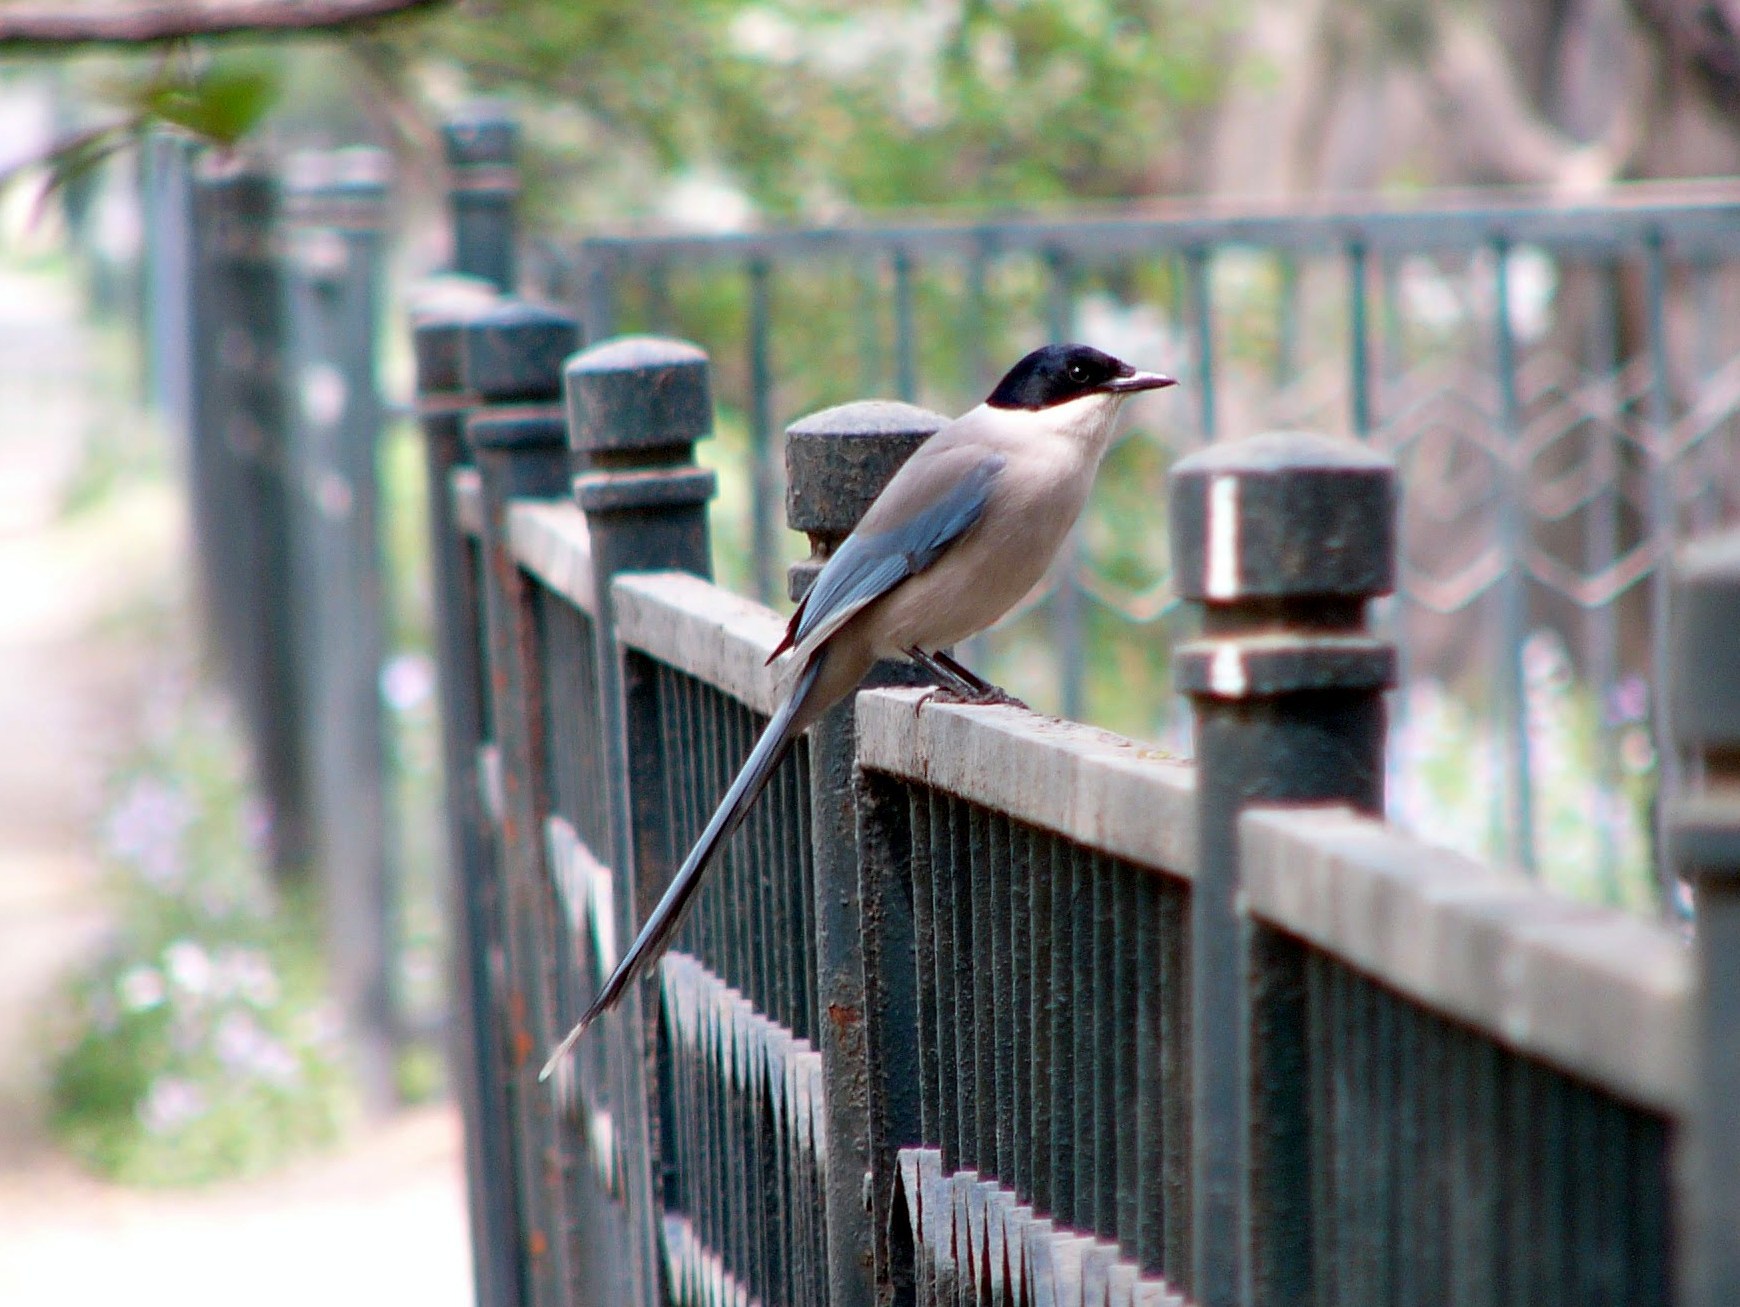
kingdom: Animalia
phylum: Chordata
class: Aves
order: Passeriformes
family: Corvidae
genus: Cyanopica
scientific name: Cyanopica cyanus
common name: Azure-winged magpie
